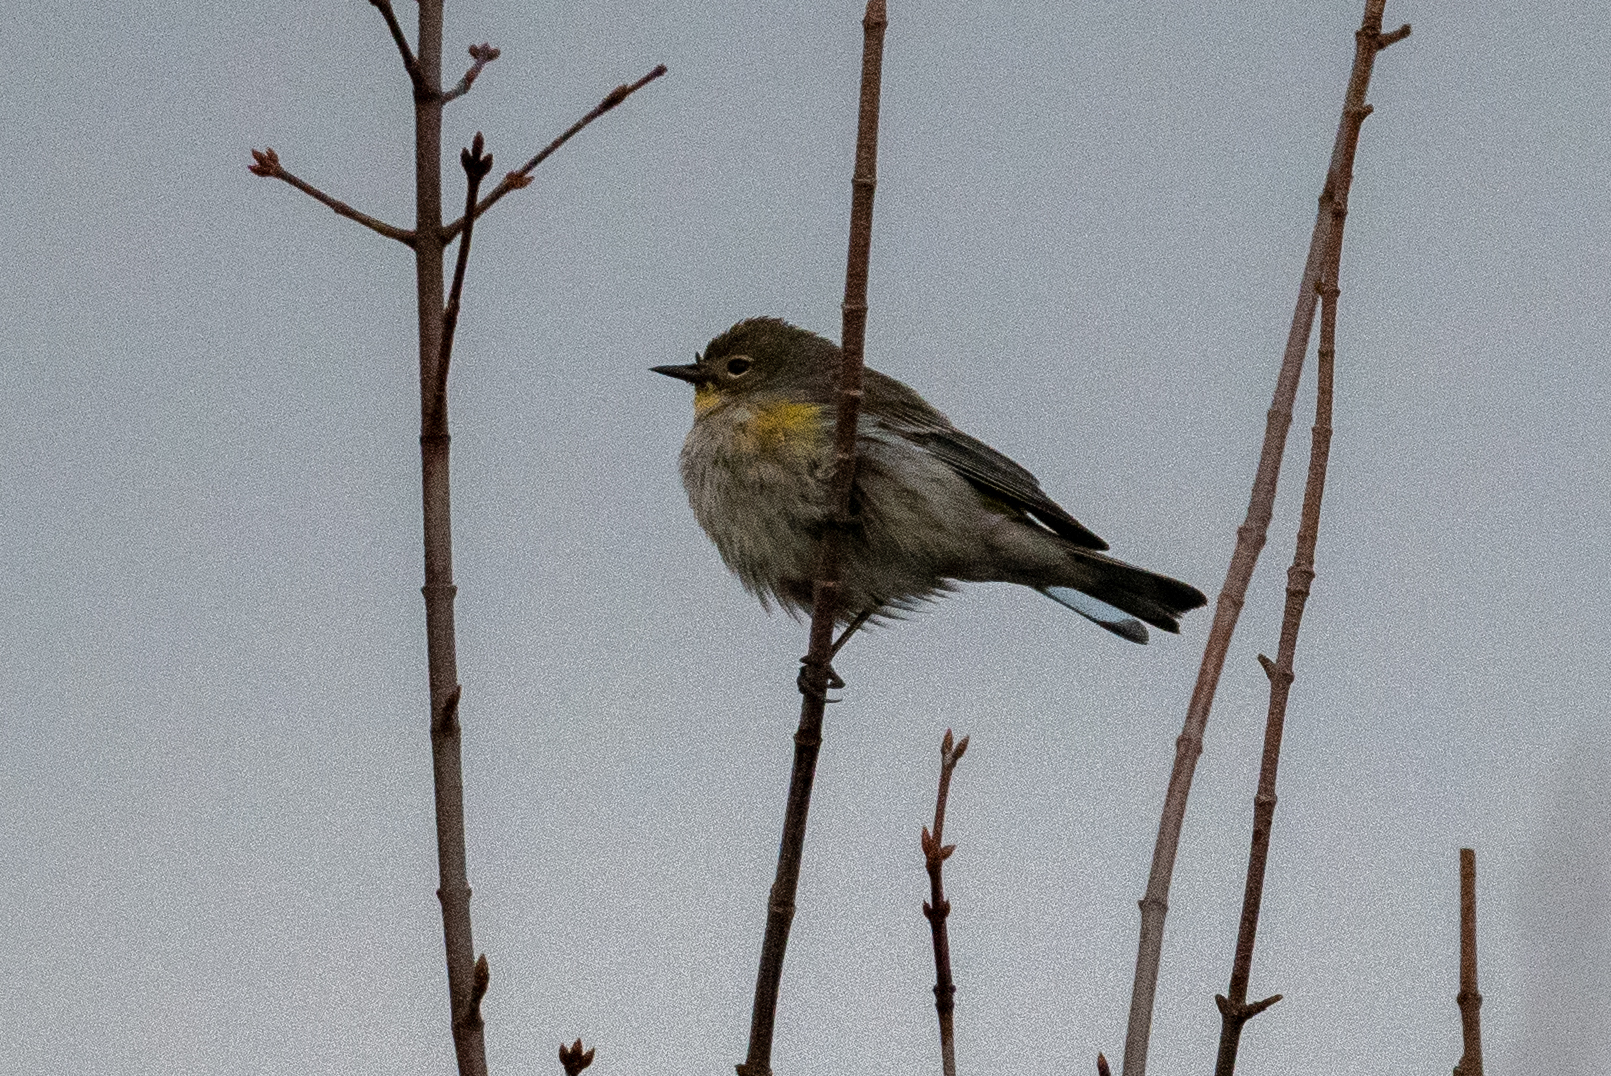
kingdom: Animalia
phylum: Chordata
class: Aves
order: Passeriformes
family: Parulidae
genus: Setophaga
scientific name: Setophaga coronata
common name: Myrtle warbler
